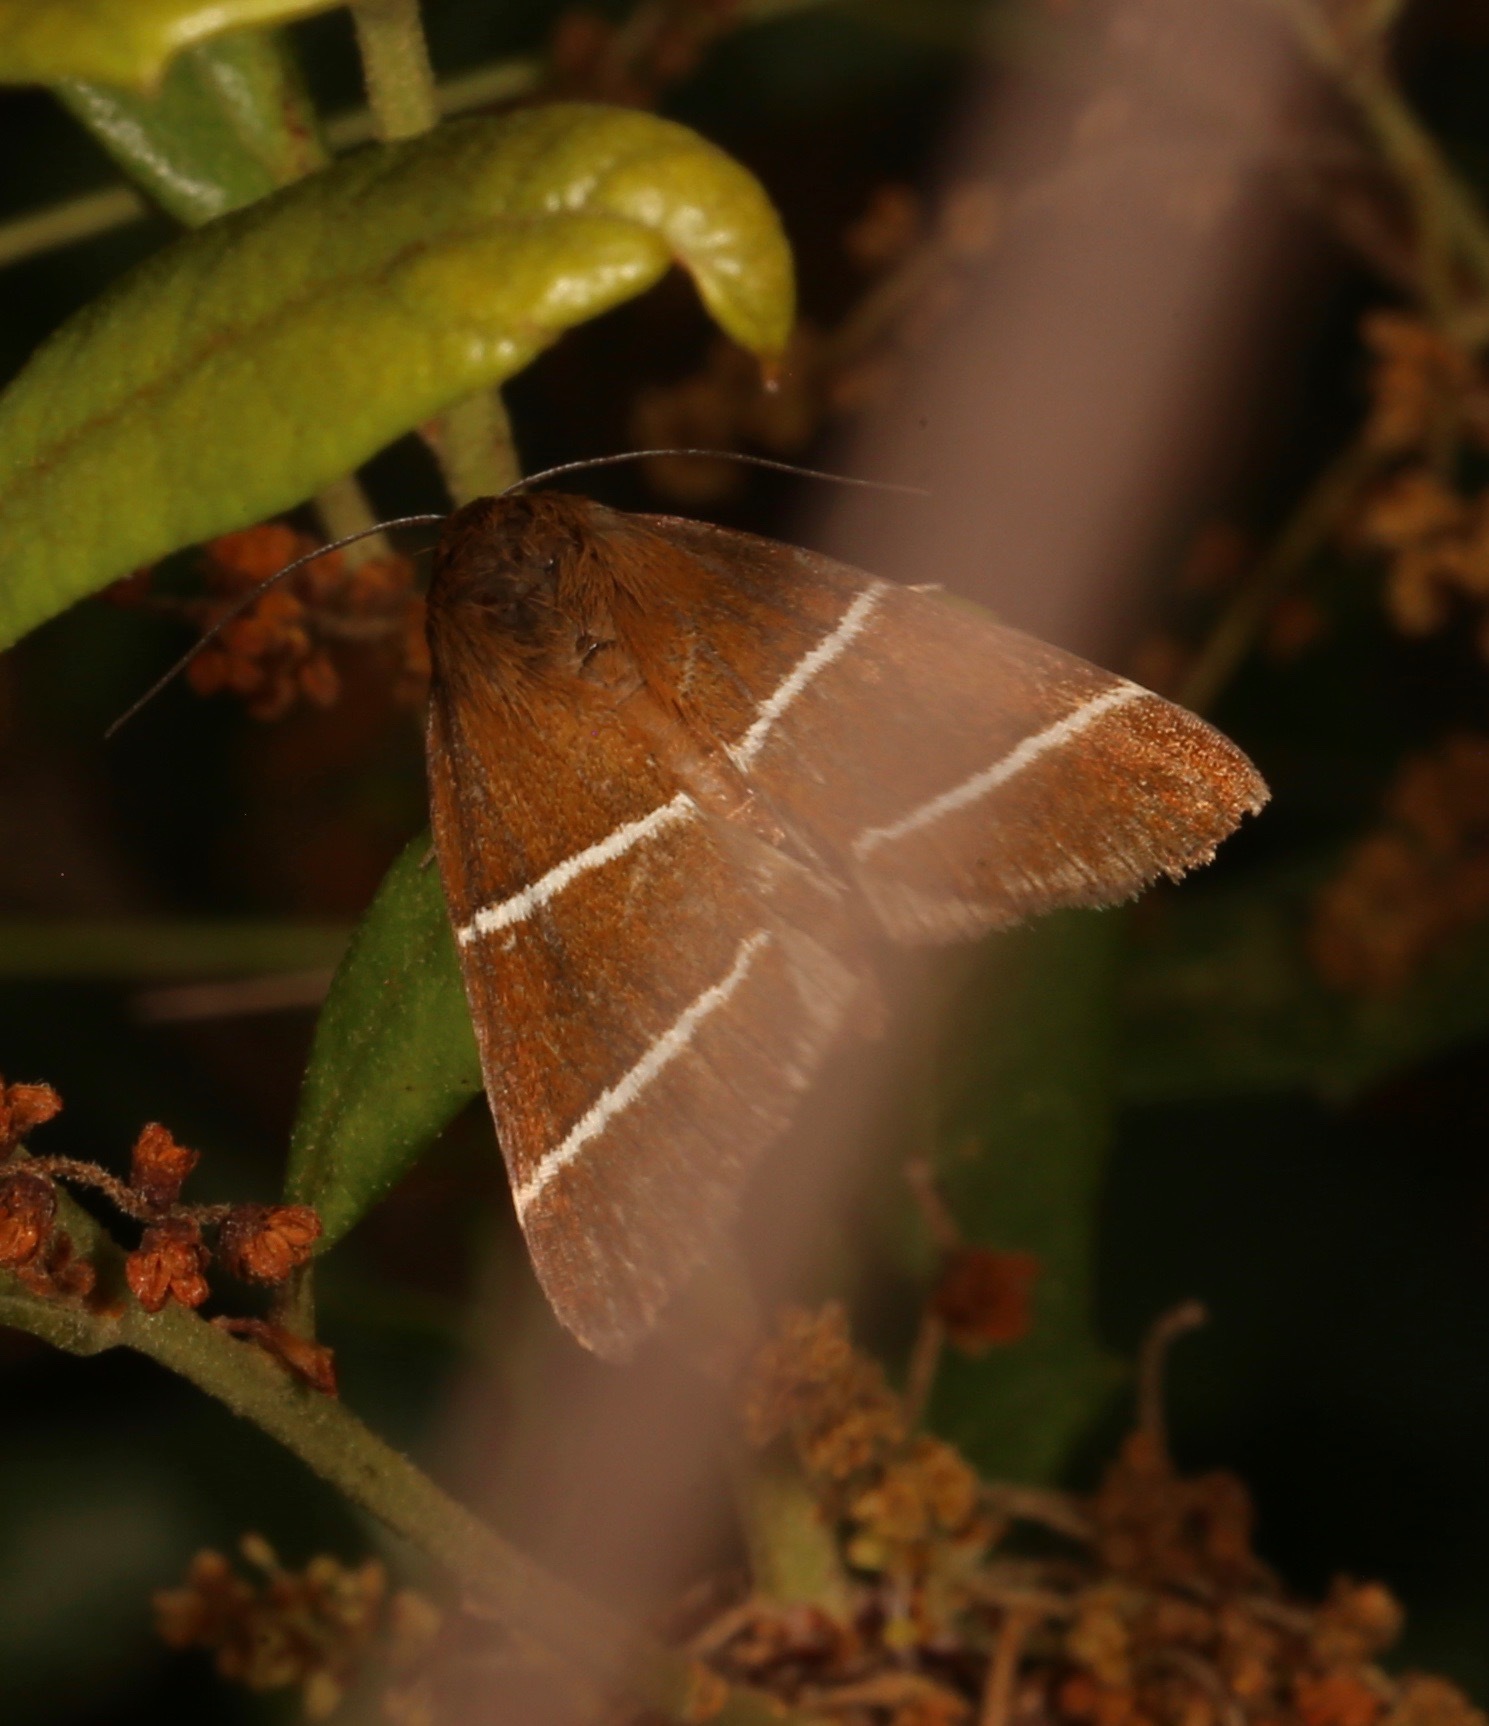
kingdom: Animalia
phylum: Arthropoda
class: Insecta
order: Lepidoptera
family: Erebidae
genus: Argyrostrotis
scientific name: Argyrostrotis quadrifilaris
